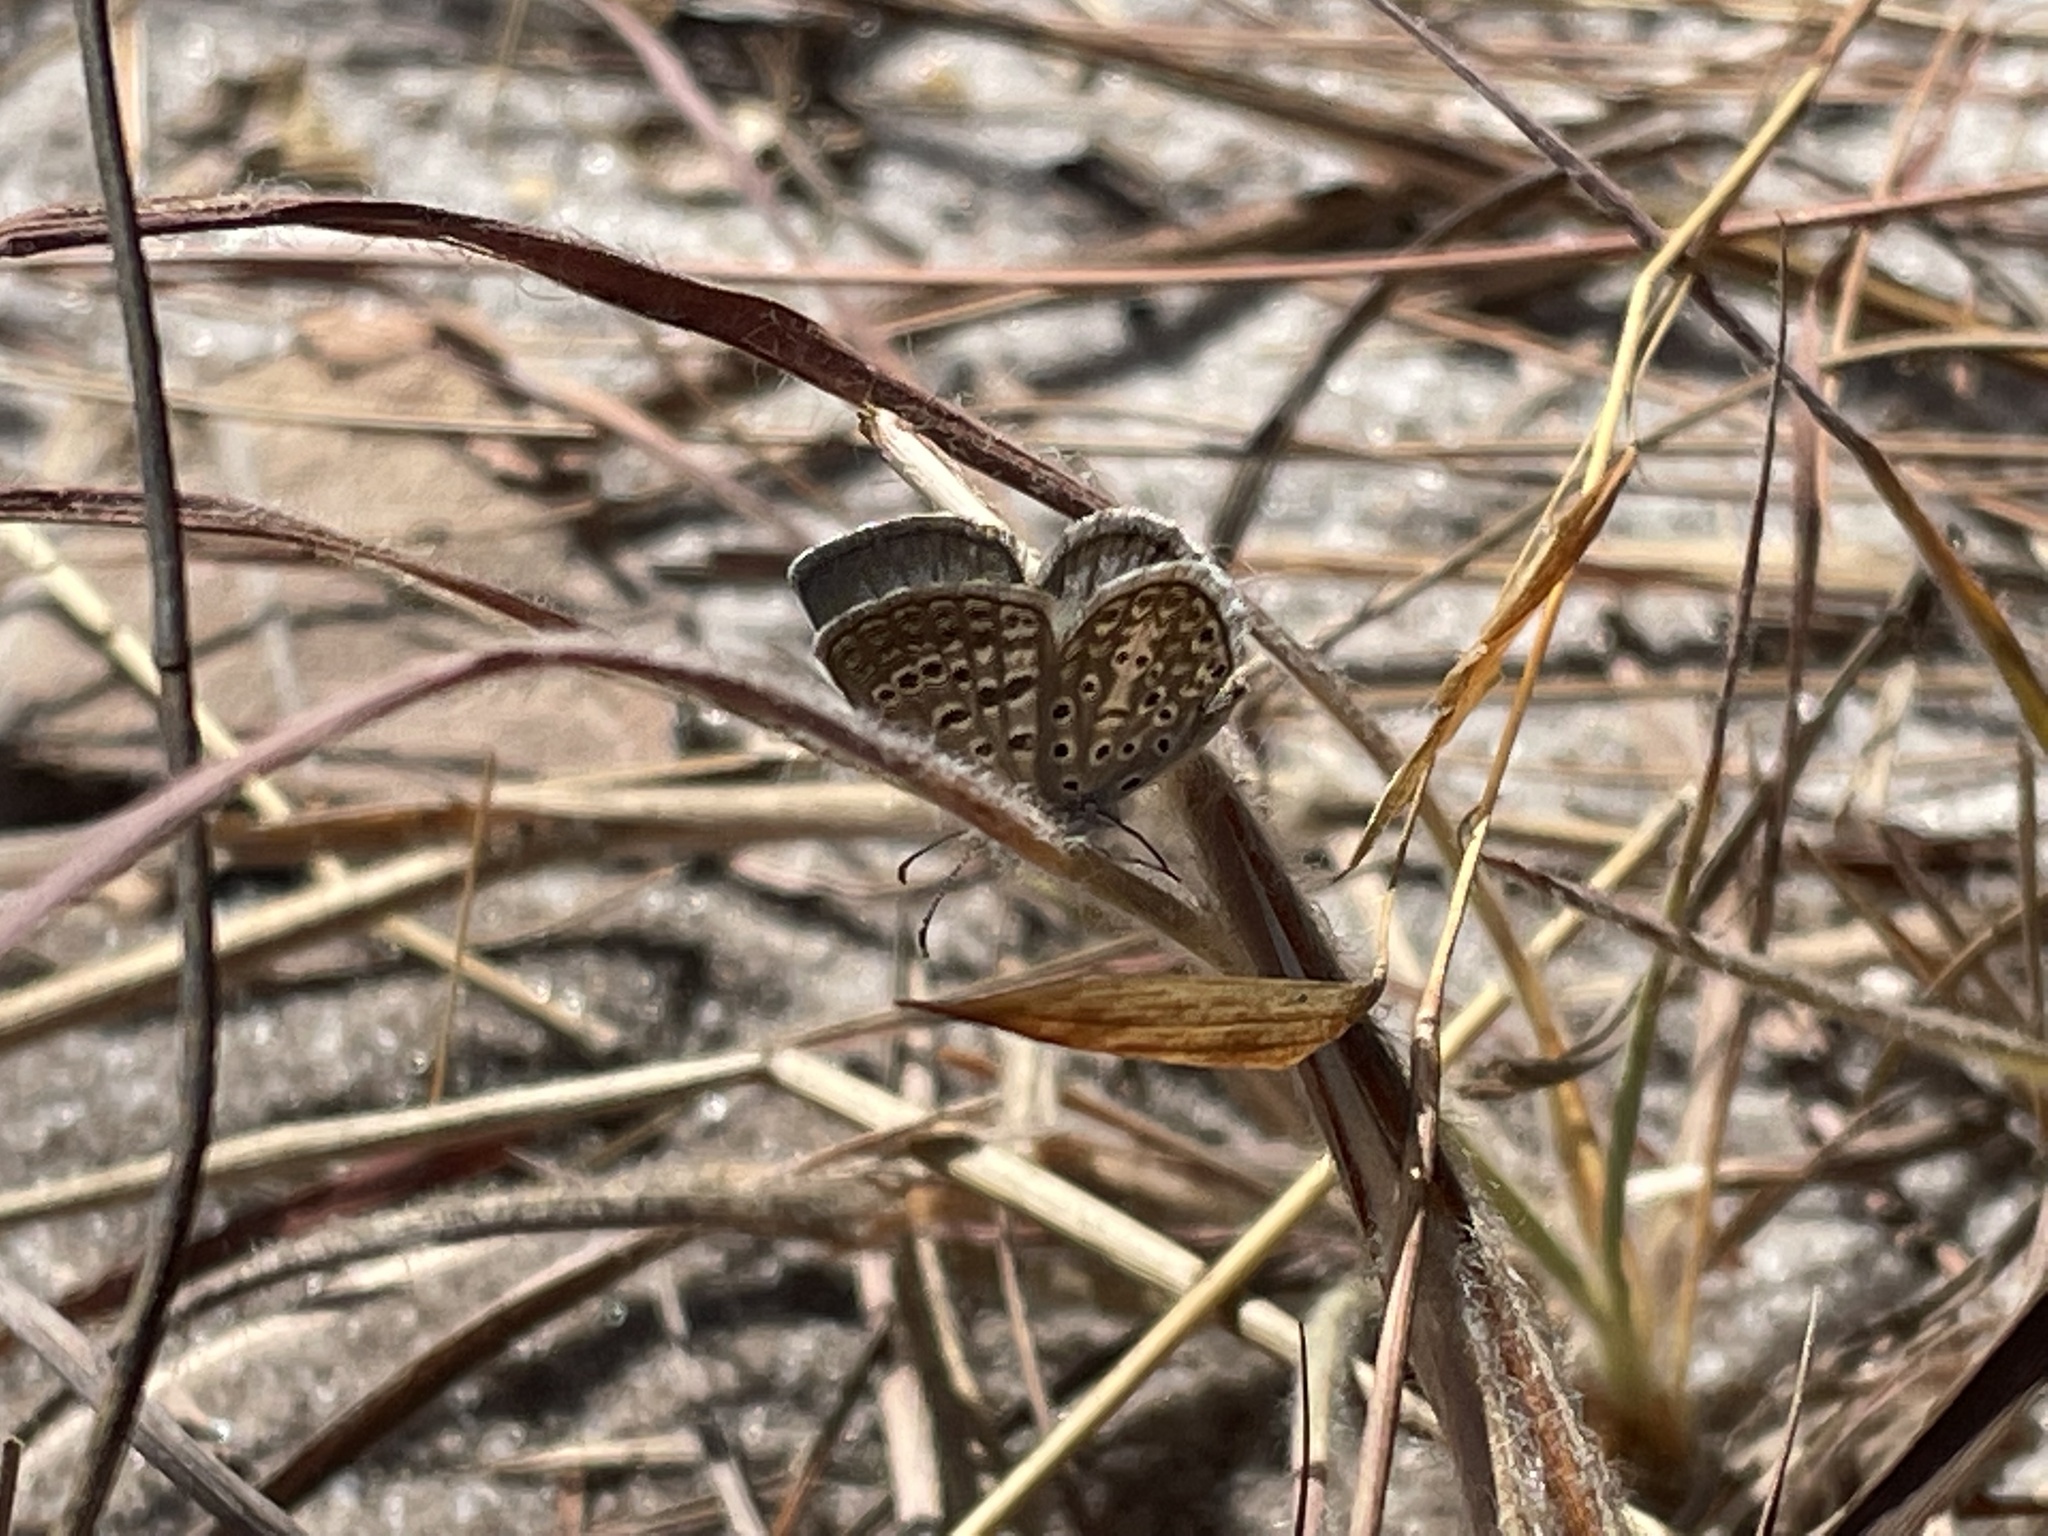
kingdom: Animalia
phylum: Arthropoda
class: Insecta
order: Lepidoptera
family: Lycaenidae
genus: Actizera
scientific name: Actizera lucida
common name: Rayed blue
